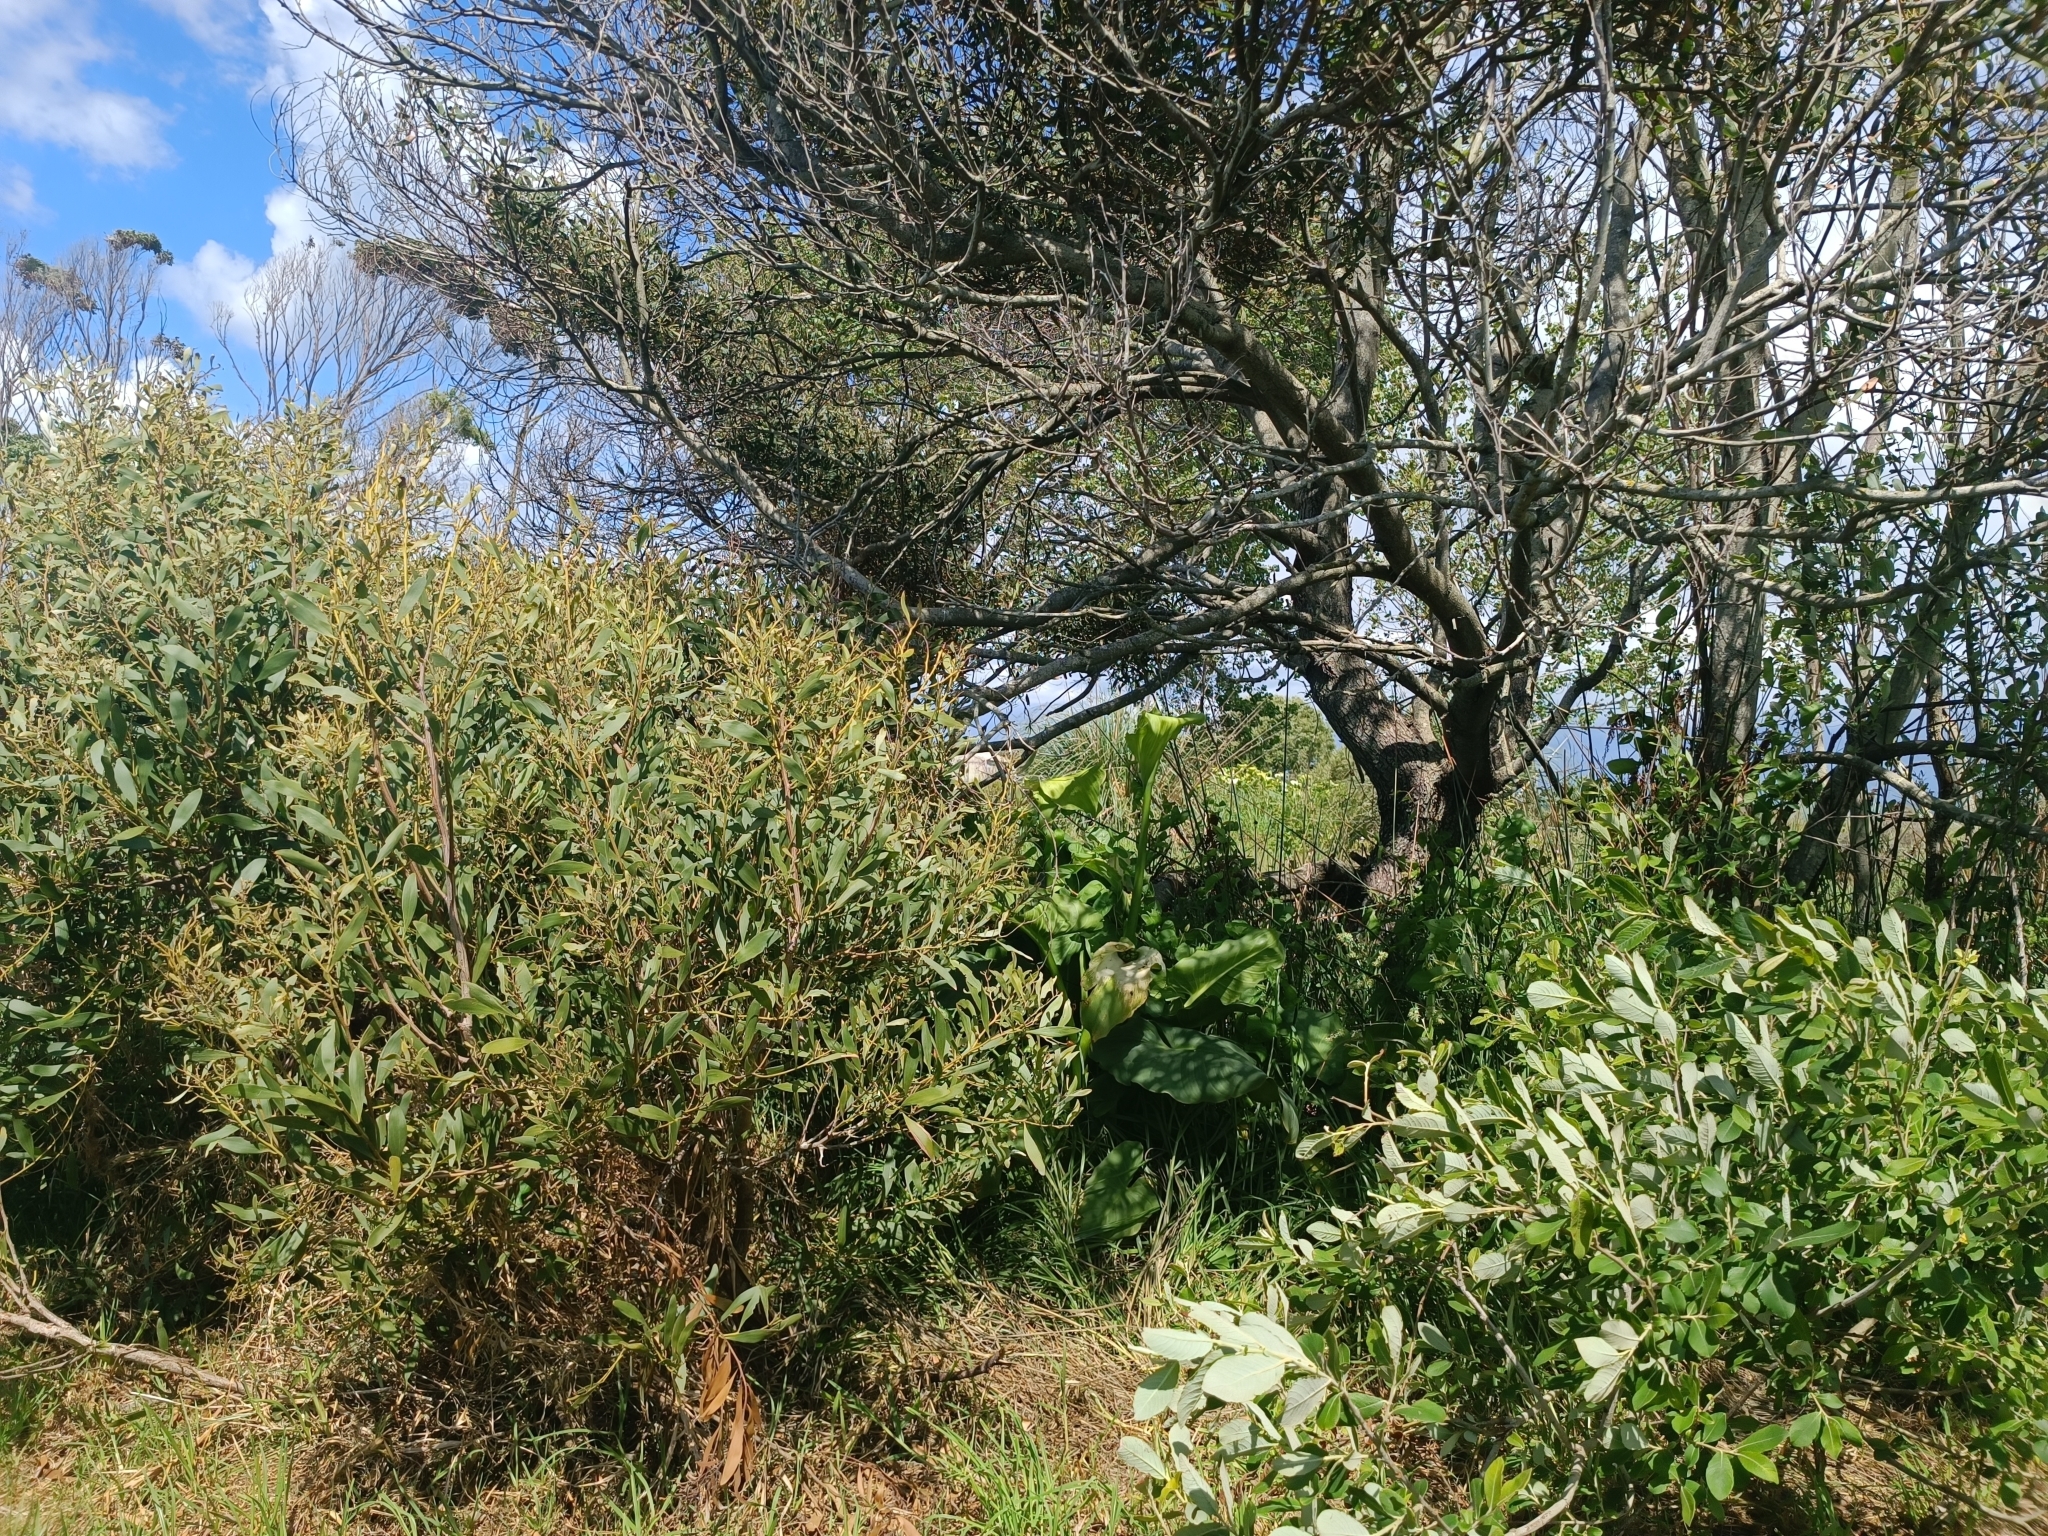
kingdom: Plantae
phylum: Tracheophyta
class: Magnoliopsida
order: Fabales
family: Fabaceae
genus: Acacia
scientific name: Acacia melanoxylon
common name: Blackwood
